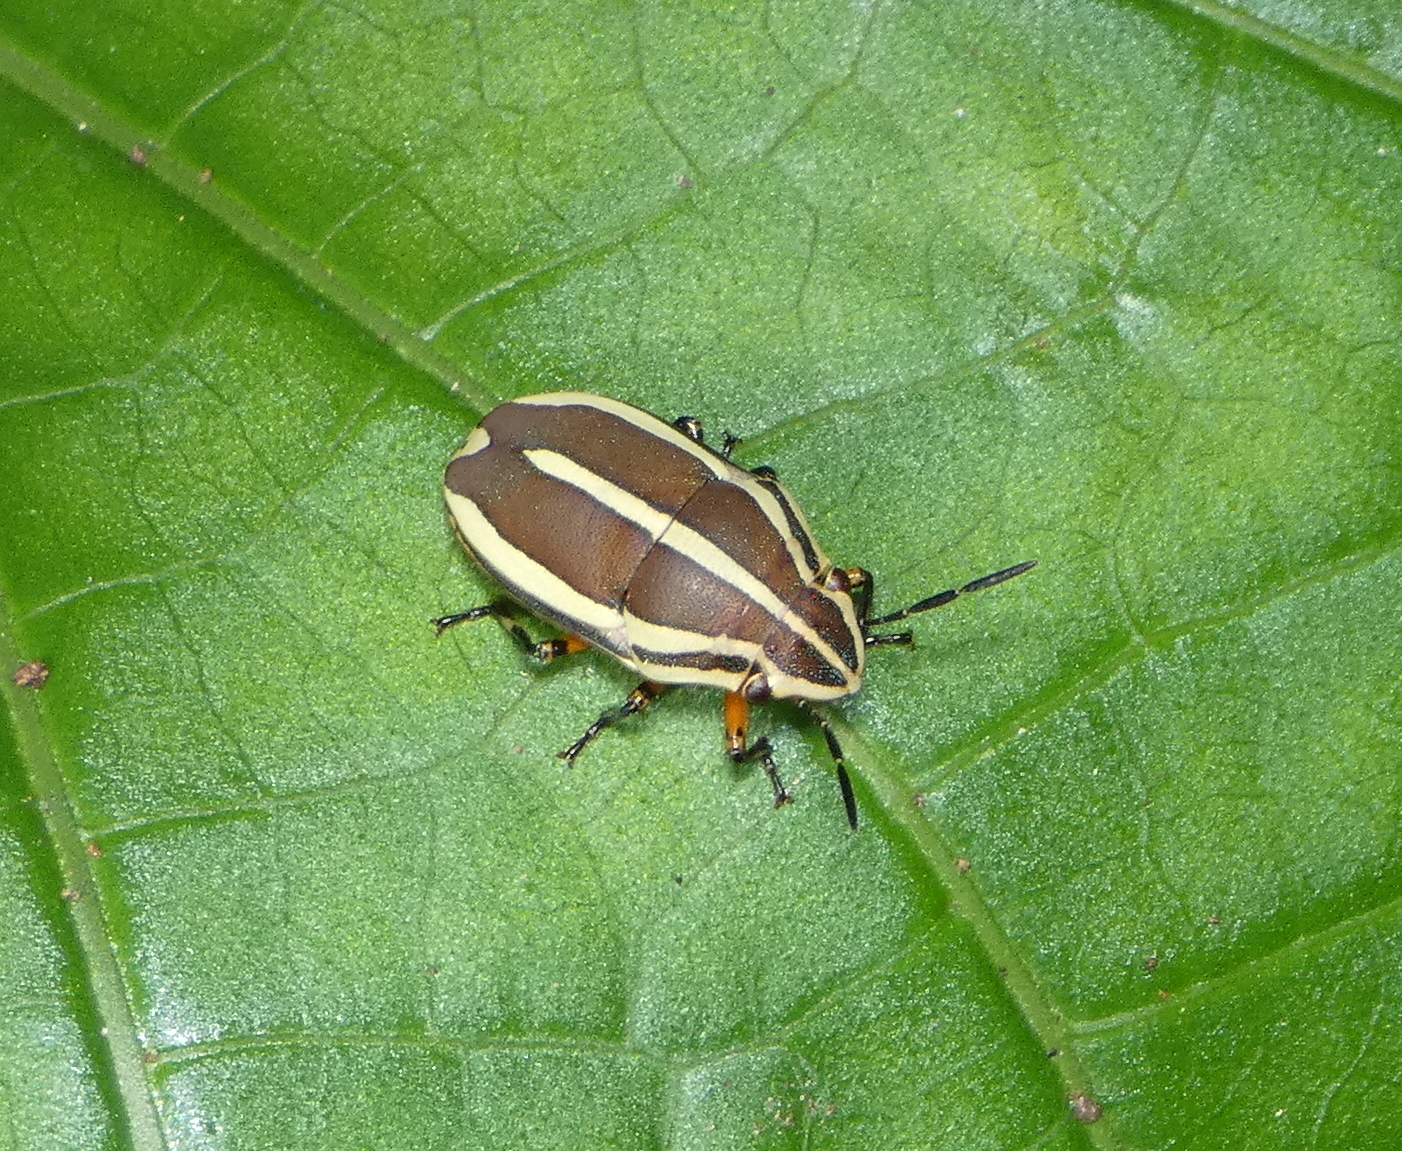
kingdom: Animalia
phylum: Arthropoda
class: Insecta
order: Hemiptera
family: Scutelleridae
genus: Agonosoma
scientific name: Agonosoma flavolineata
